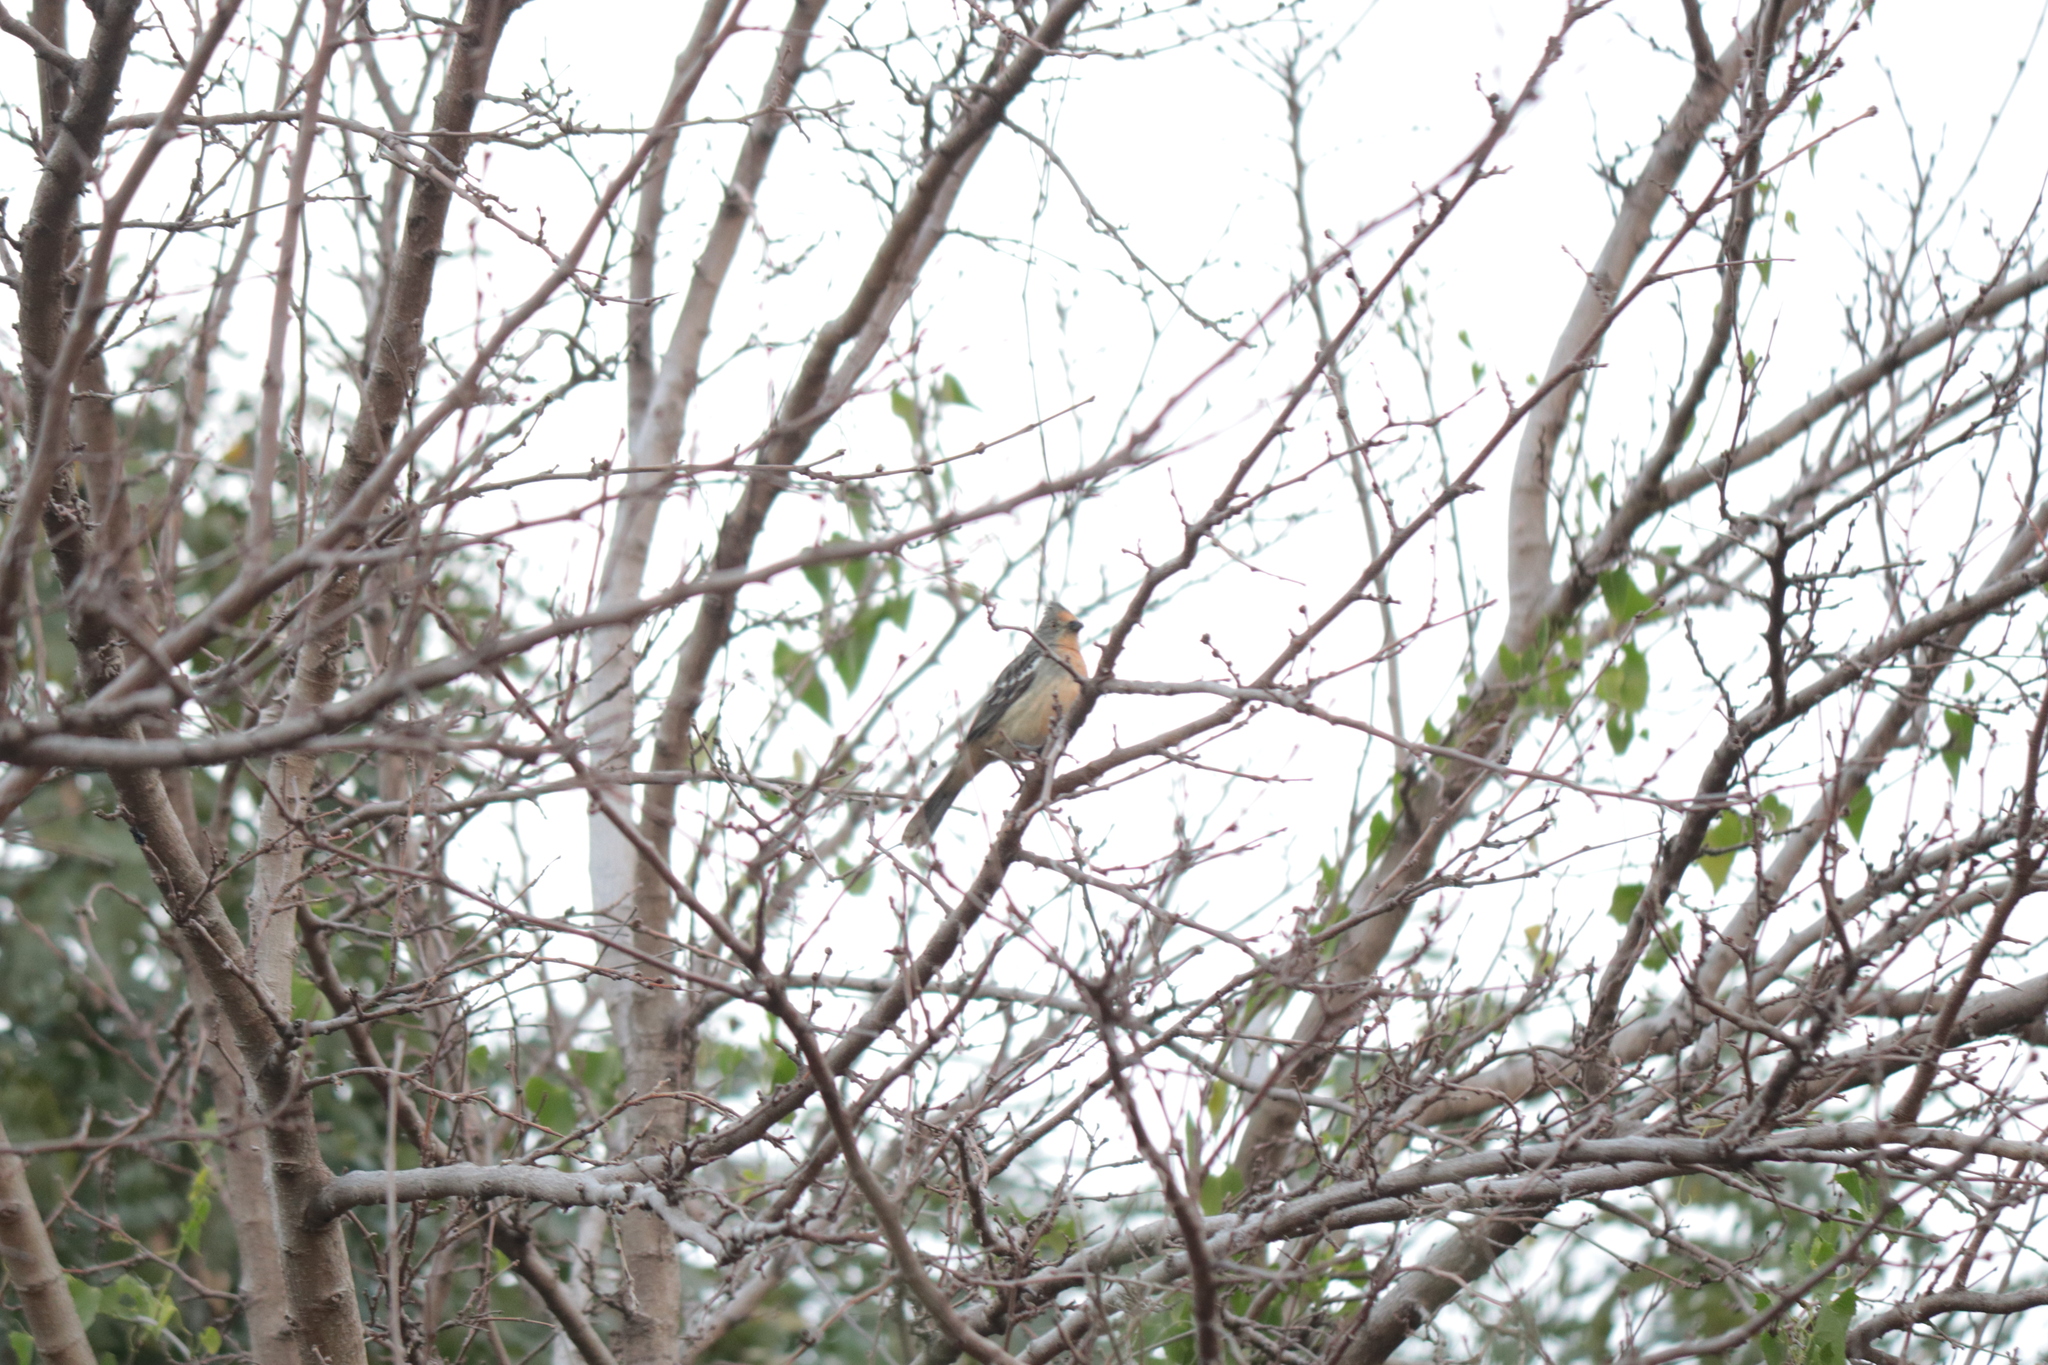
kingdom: Animalia
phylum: Chordata
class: Aves
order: Passeriformes
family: Cotingidae
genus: Phytotoma
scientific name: Phytotoma rutila
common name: White-tipped plantcutter
